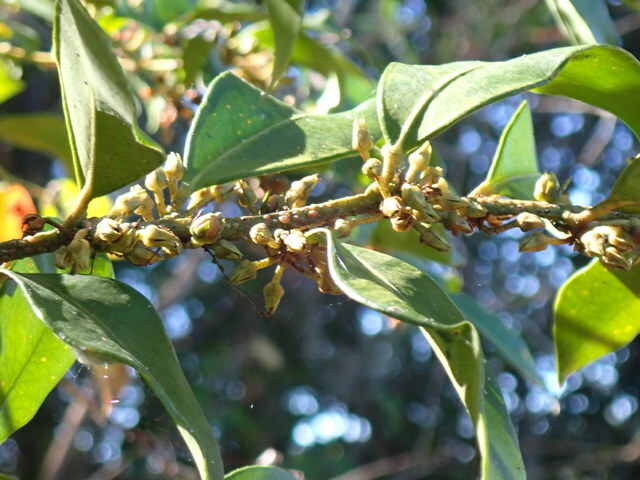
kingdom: Plantae
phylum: Tracheophyta
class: Magnoliopsida
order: Ericales
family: Ericaceae
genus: Lyonia
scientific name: Lyonia lucida
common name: Fetterbush
